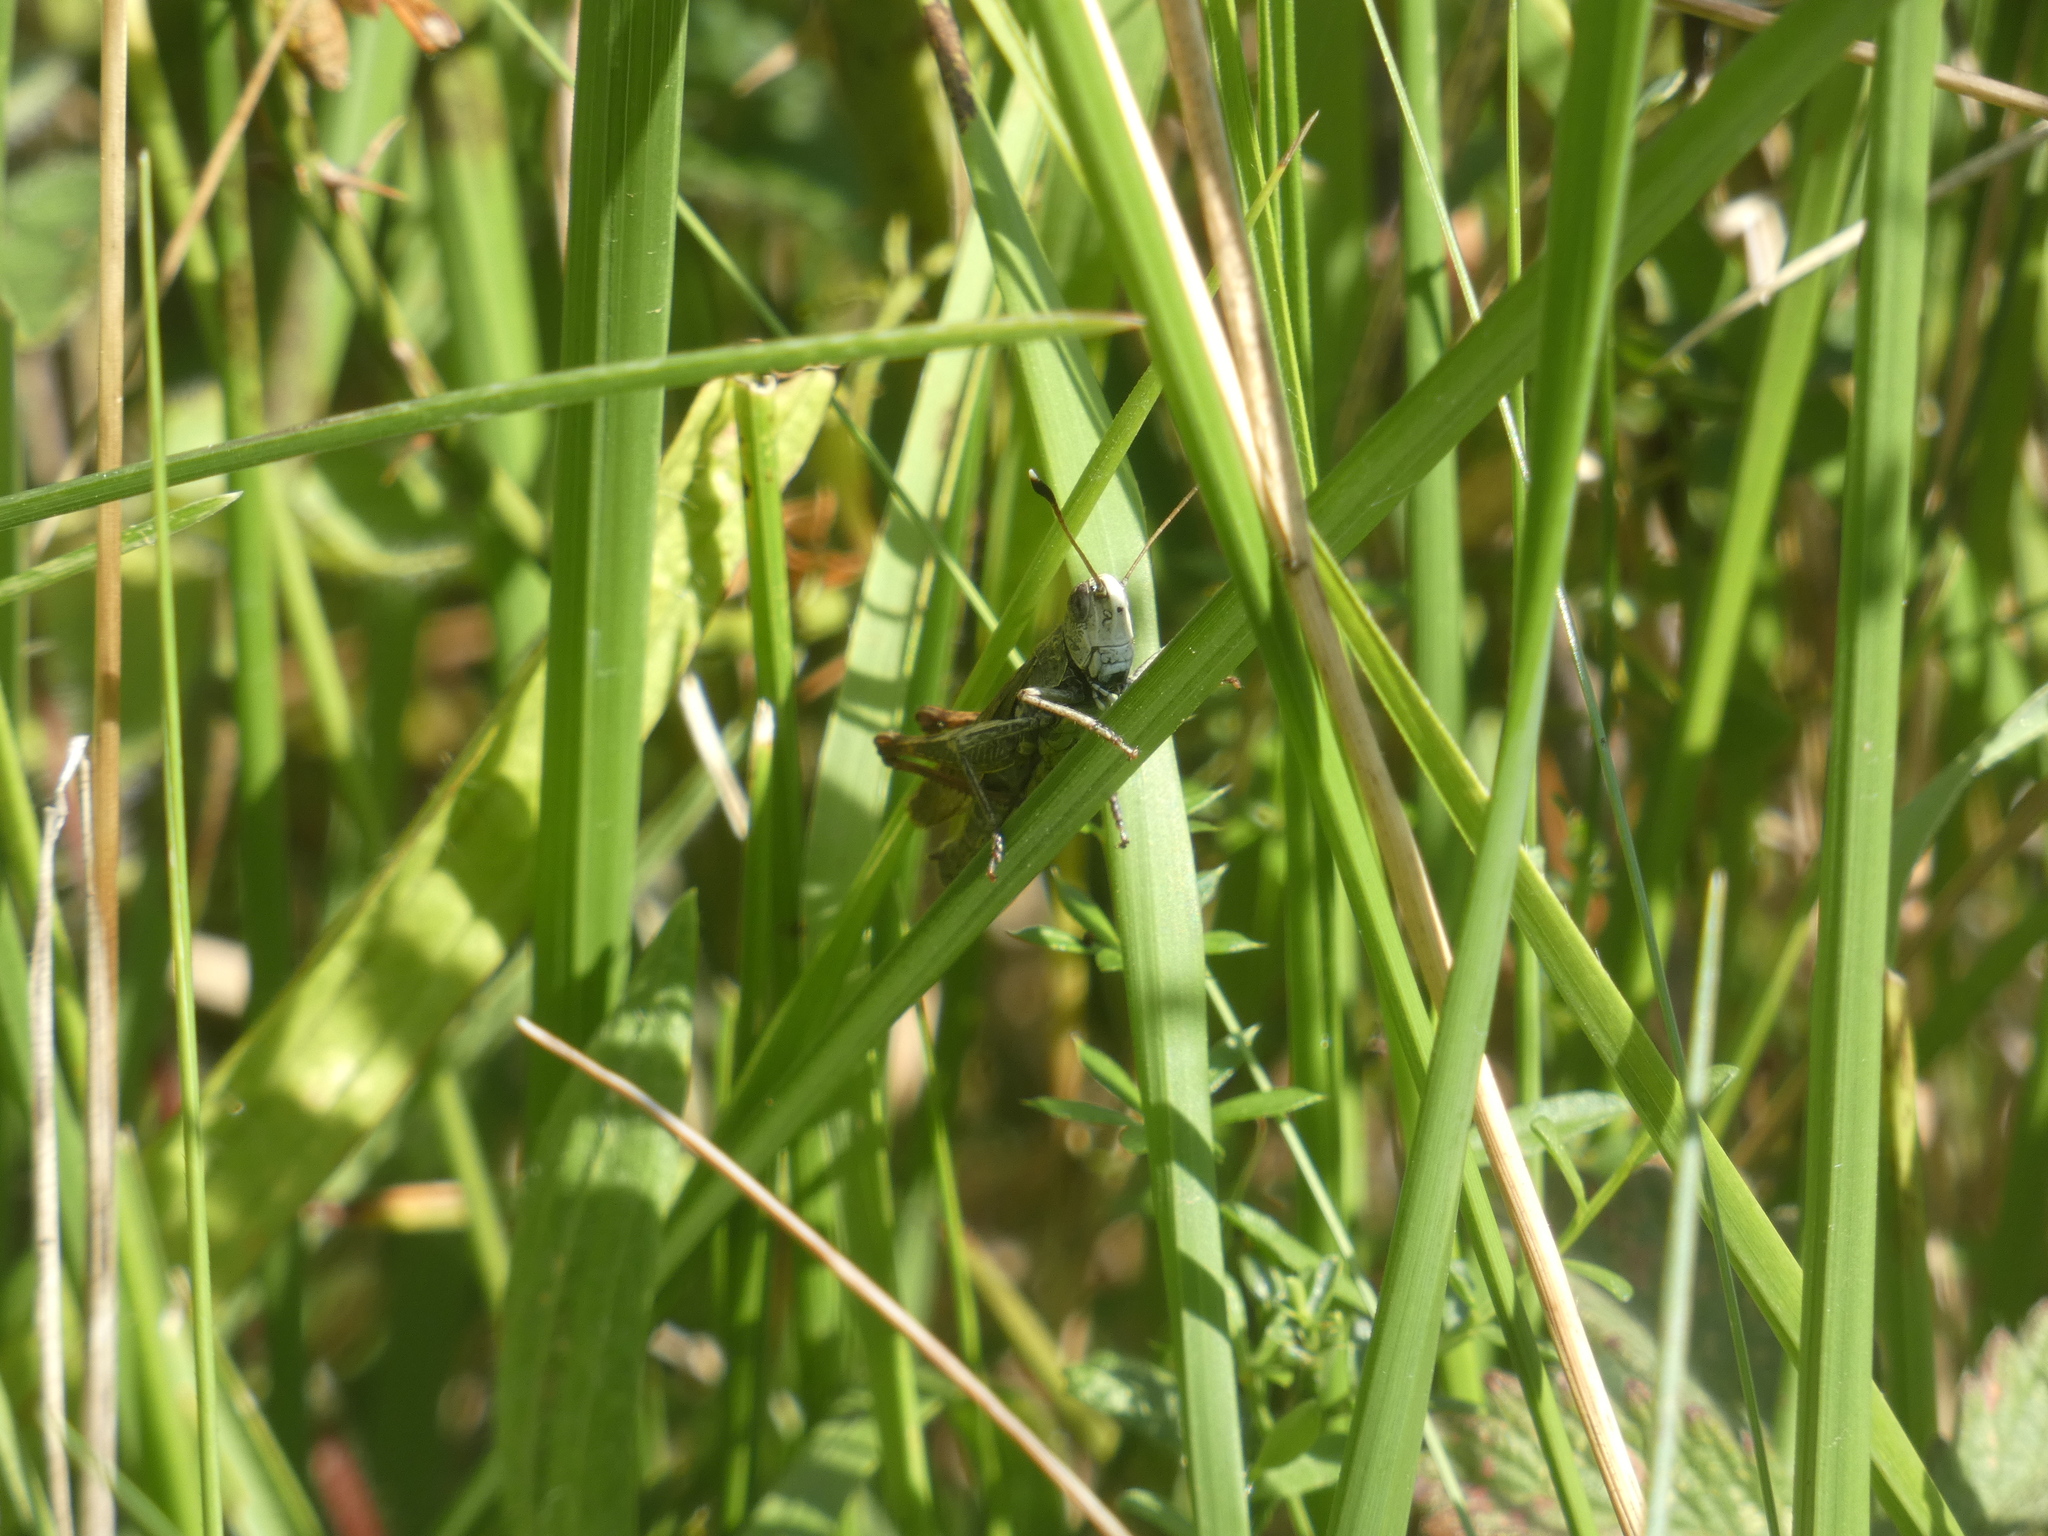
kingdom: Animalia
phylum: Arthropoda
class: Insecta
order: Orthoptera
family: Acrididae
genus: Gomphocerippus
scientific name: Gomphocerippus rufus
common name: Rufous grasshopper
